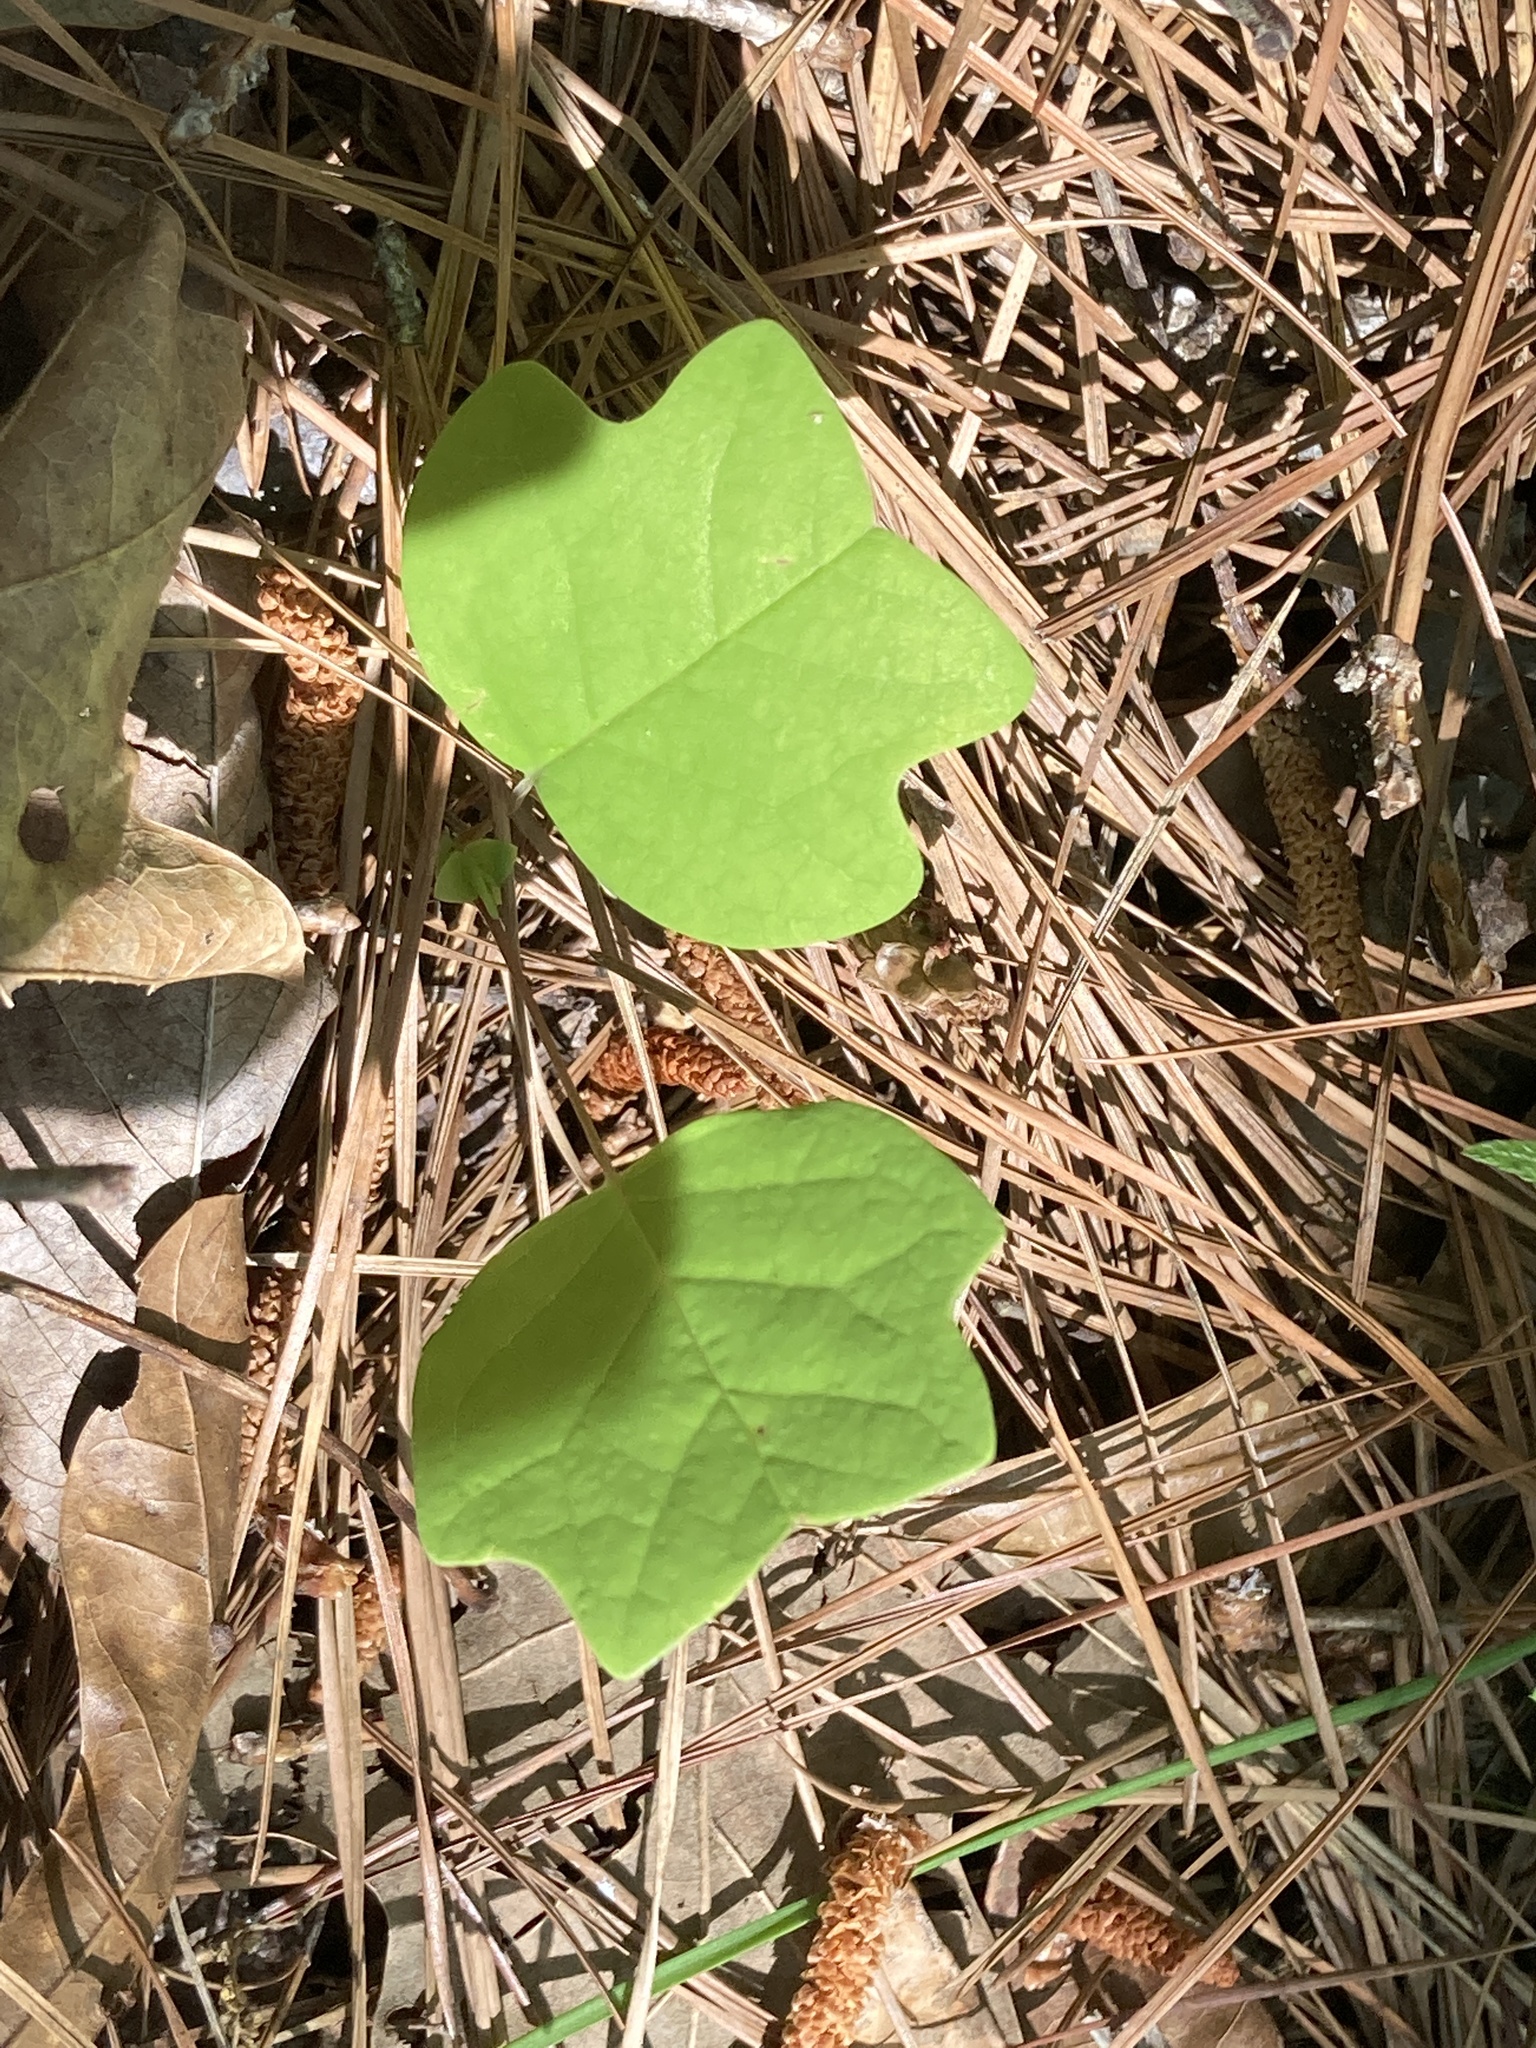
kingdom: Plantae
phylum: Tracheophyta
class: Magnoliopsida
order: Magnoliales
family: Magnoliaceae
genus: Liriodendron
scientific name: Liriodendron tulipifera
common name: Tulip tree
